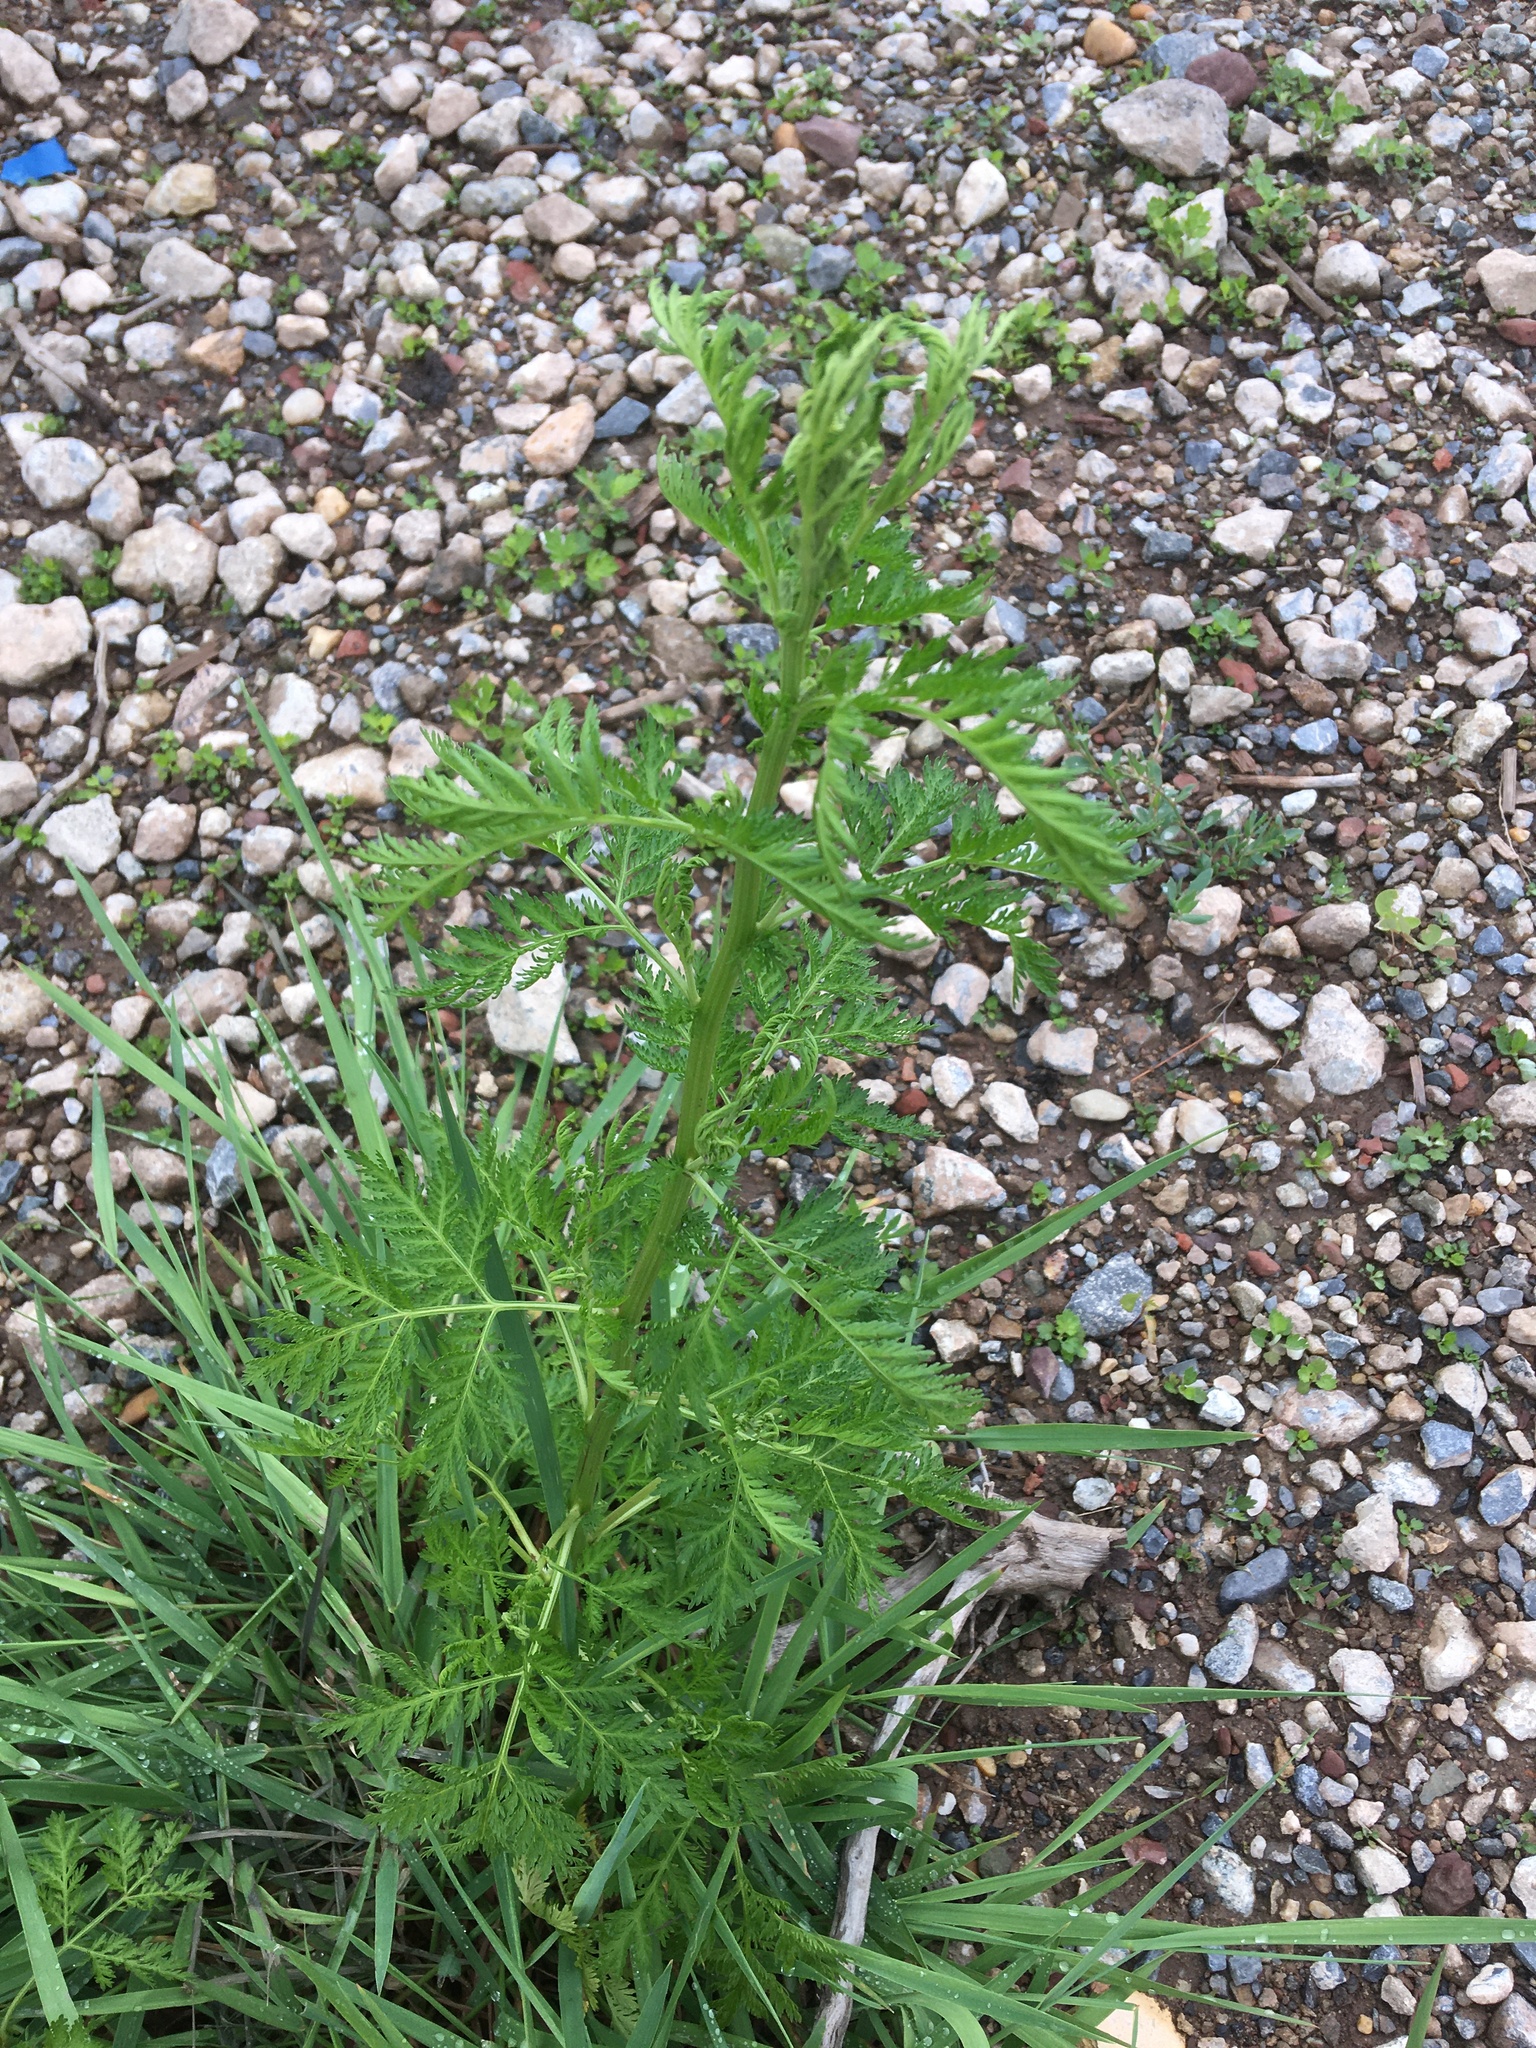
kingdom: Plantae
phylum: Tracheophyta
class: Magnoliopsida
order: Asterales
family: Asteraceae
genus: Artemisia
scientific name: Artemisia annua
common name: Sweet sagewort
